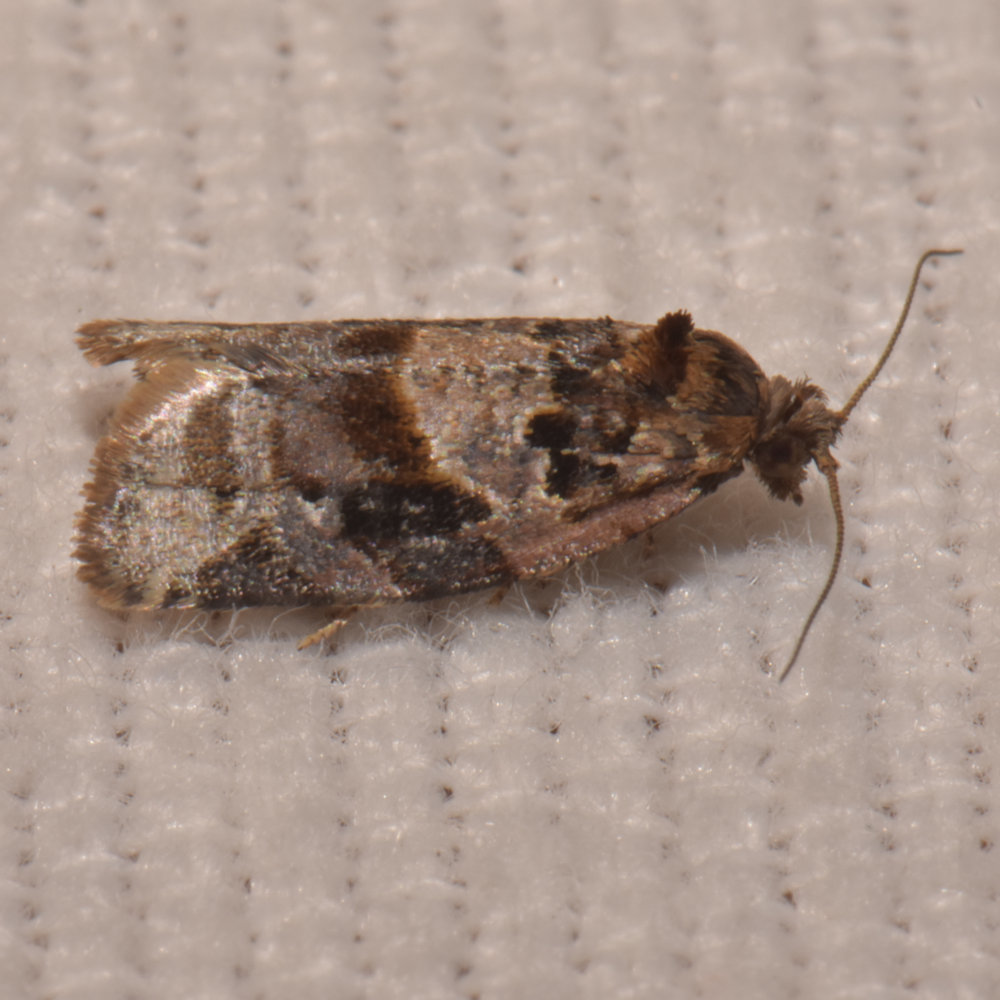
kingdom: Animalia
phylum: Arthropoda
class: Insecta
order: Lepidoptera
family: Tortricidae
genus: Argyrotaenia
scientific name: Argyrotaenia velutinana
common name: Red-banded leafroller moth
